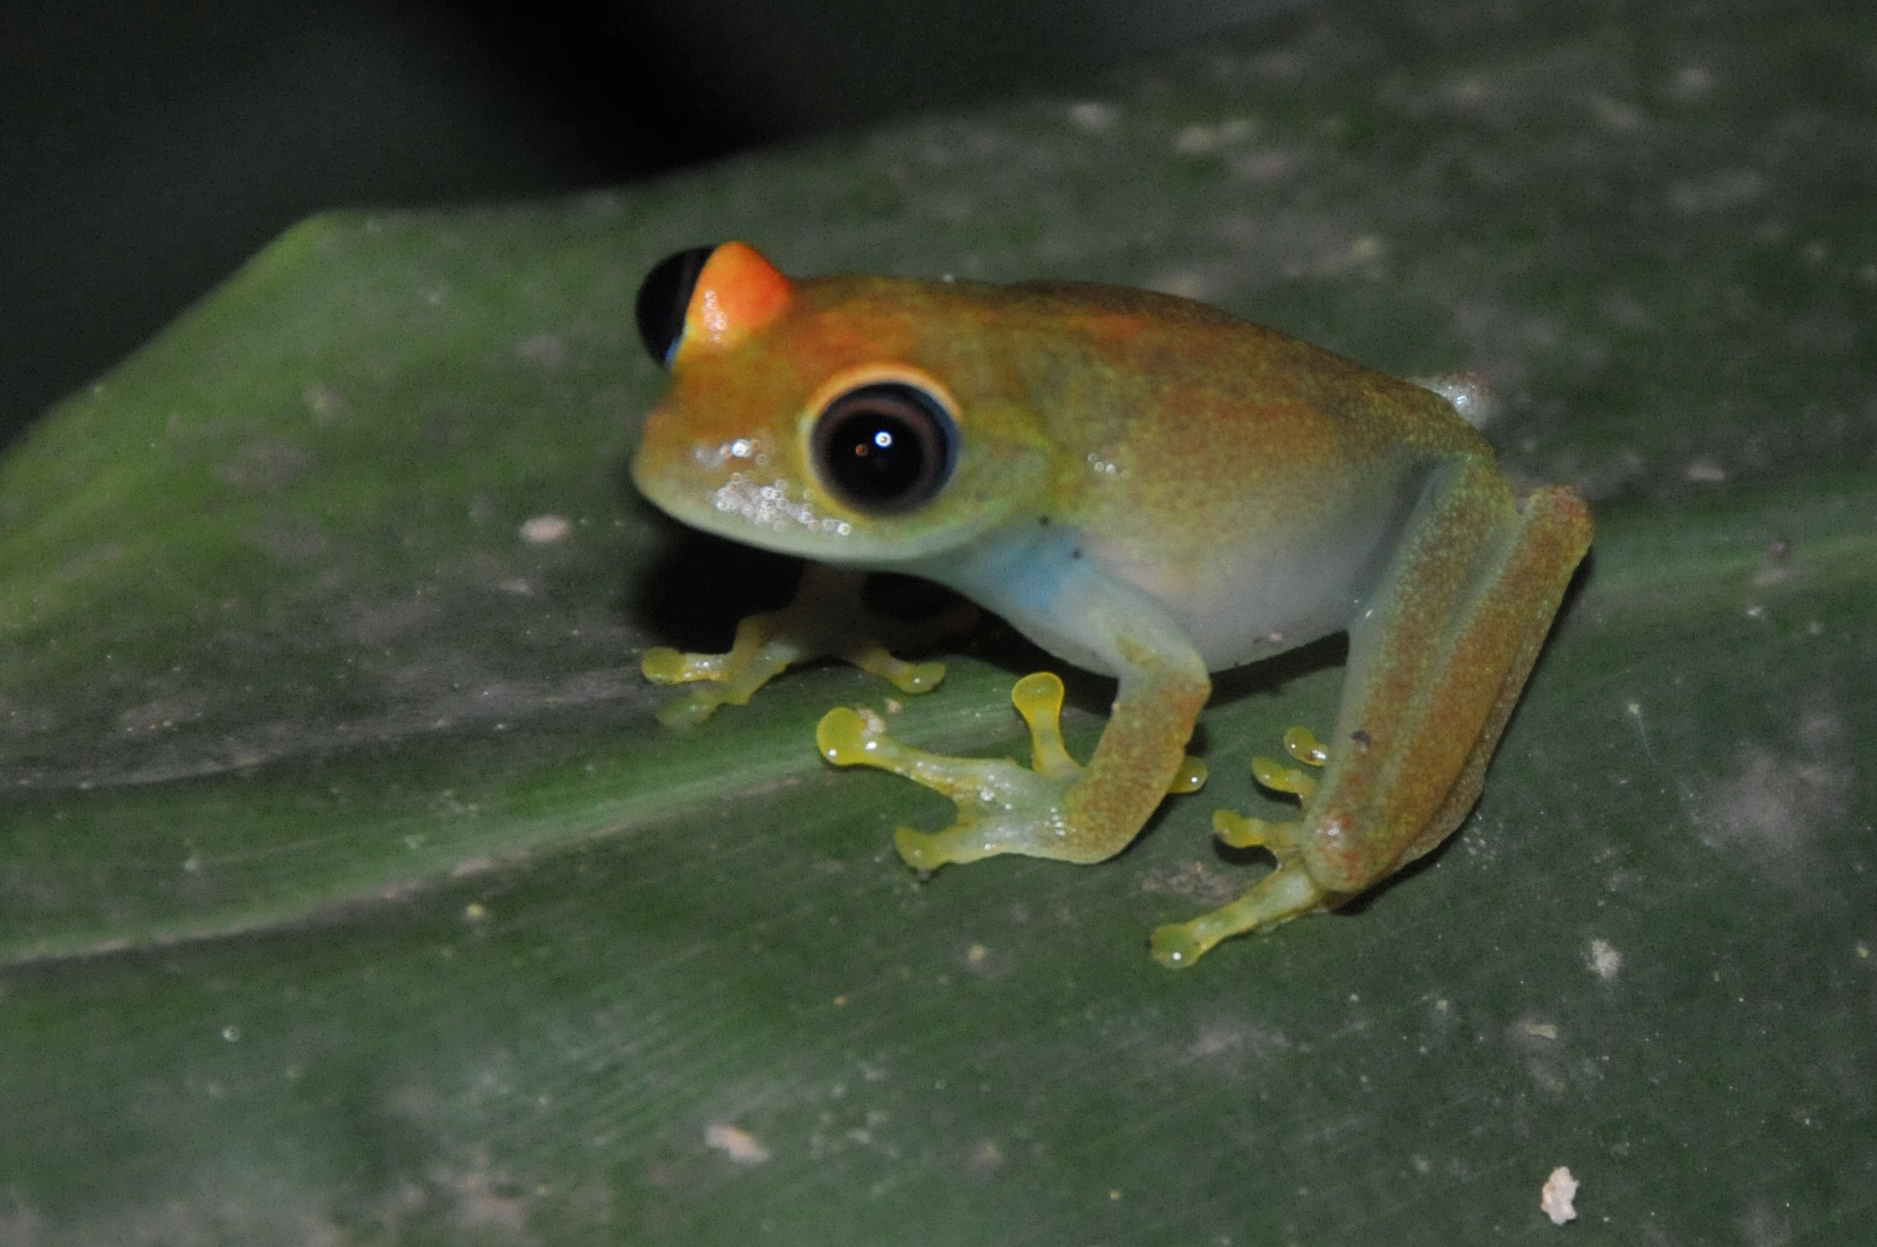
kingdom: Animalia
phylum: Chordata
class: Amphibia
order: Anura
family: Mantellidae
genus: Boophis
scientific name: Boophis viridis
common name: Green bright-eyed frog
